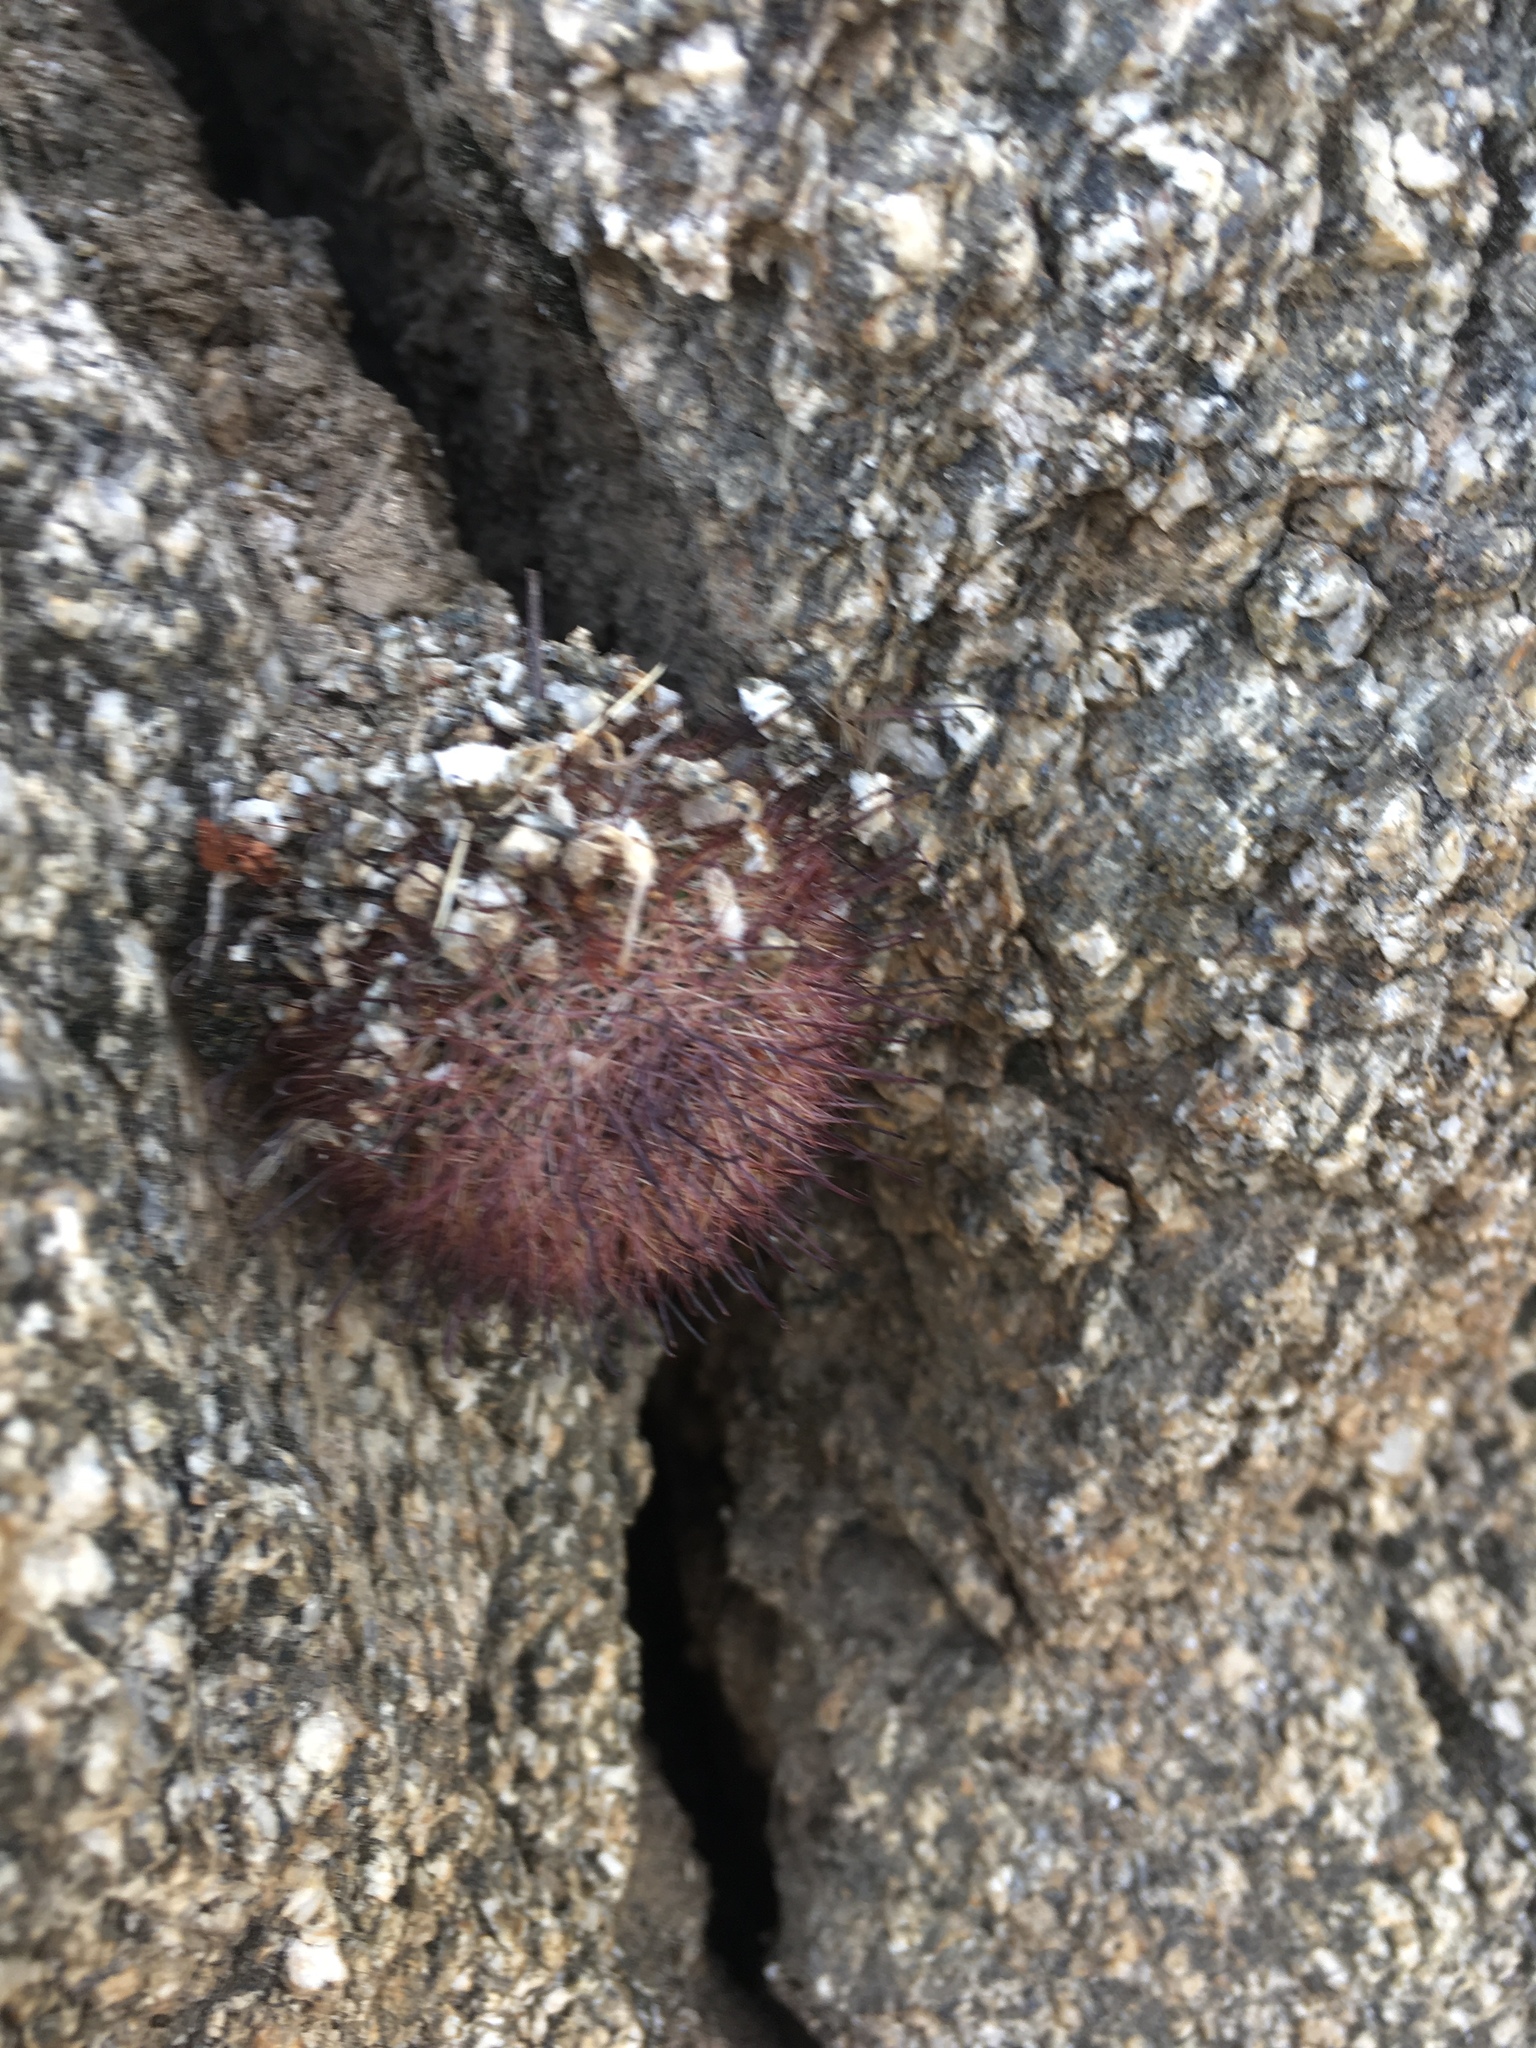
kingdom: Plantae
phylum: Tracheophyta
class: Magnoliopsida
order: Caryophyllales
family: Cactaceae
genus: Cochemiea
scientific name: Cochemiea dioica
